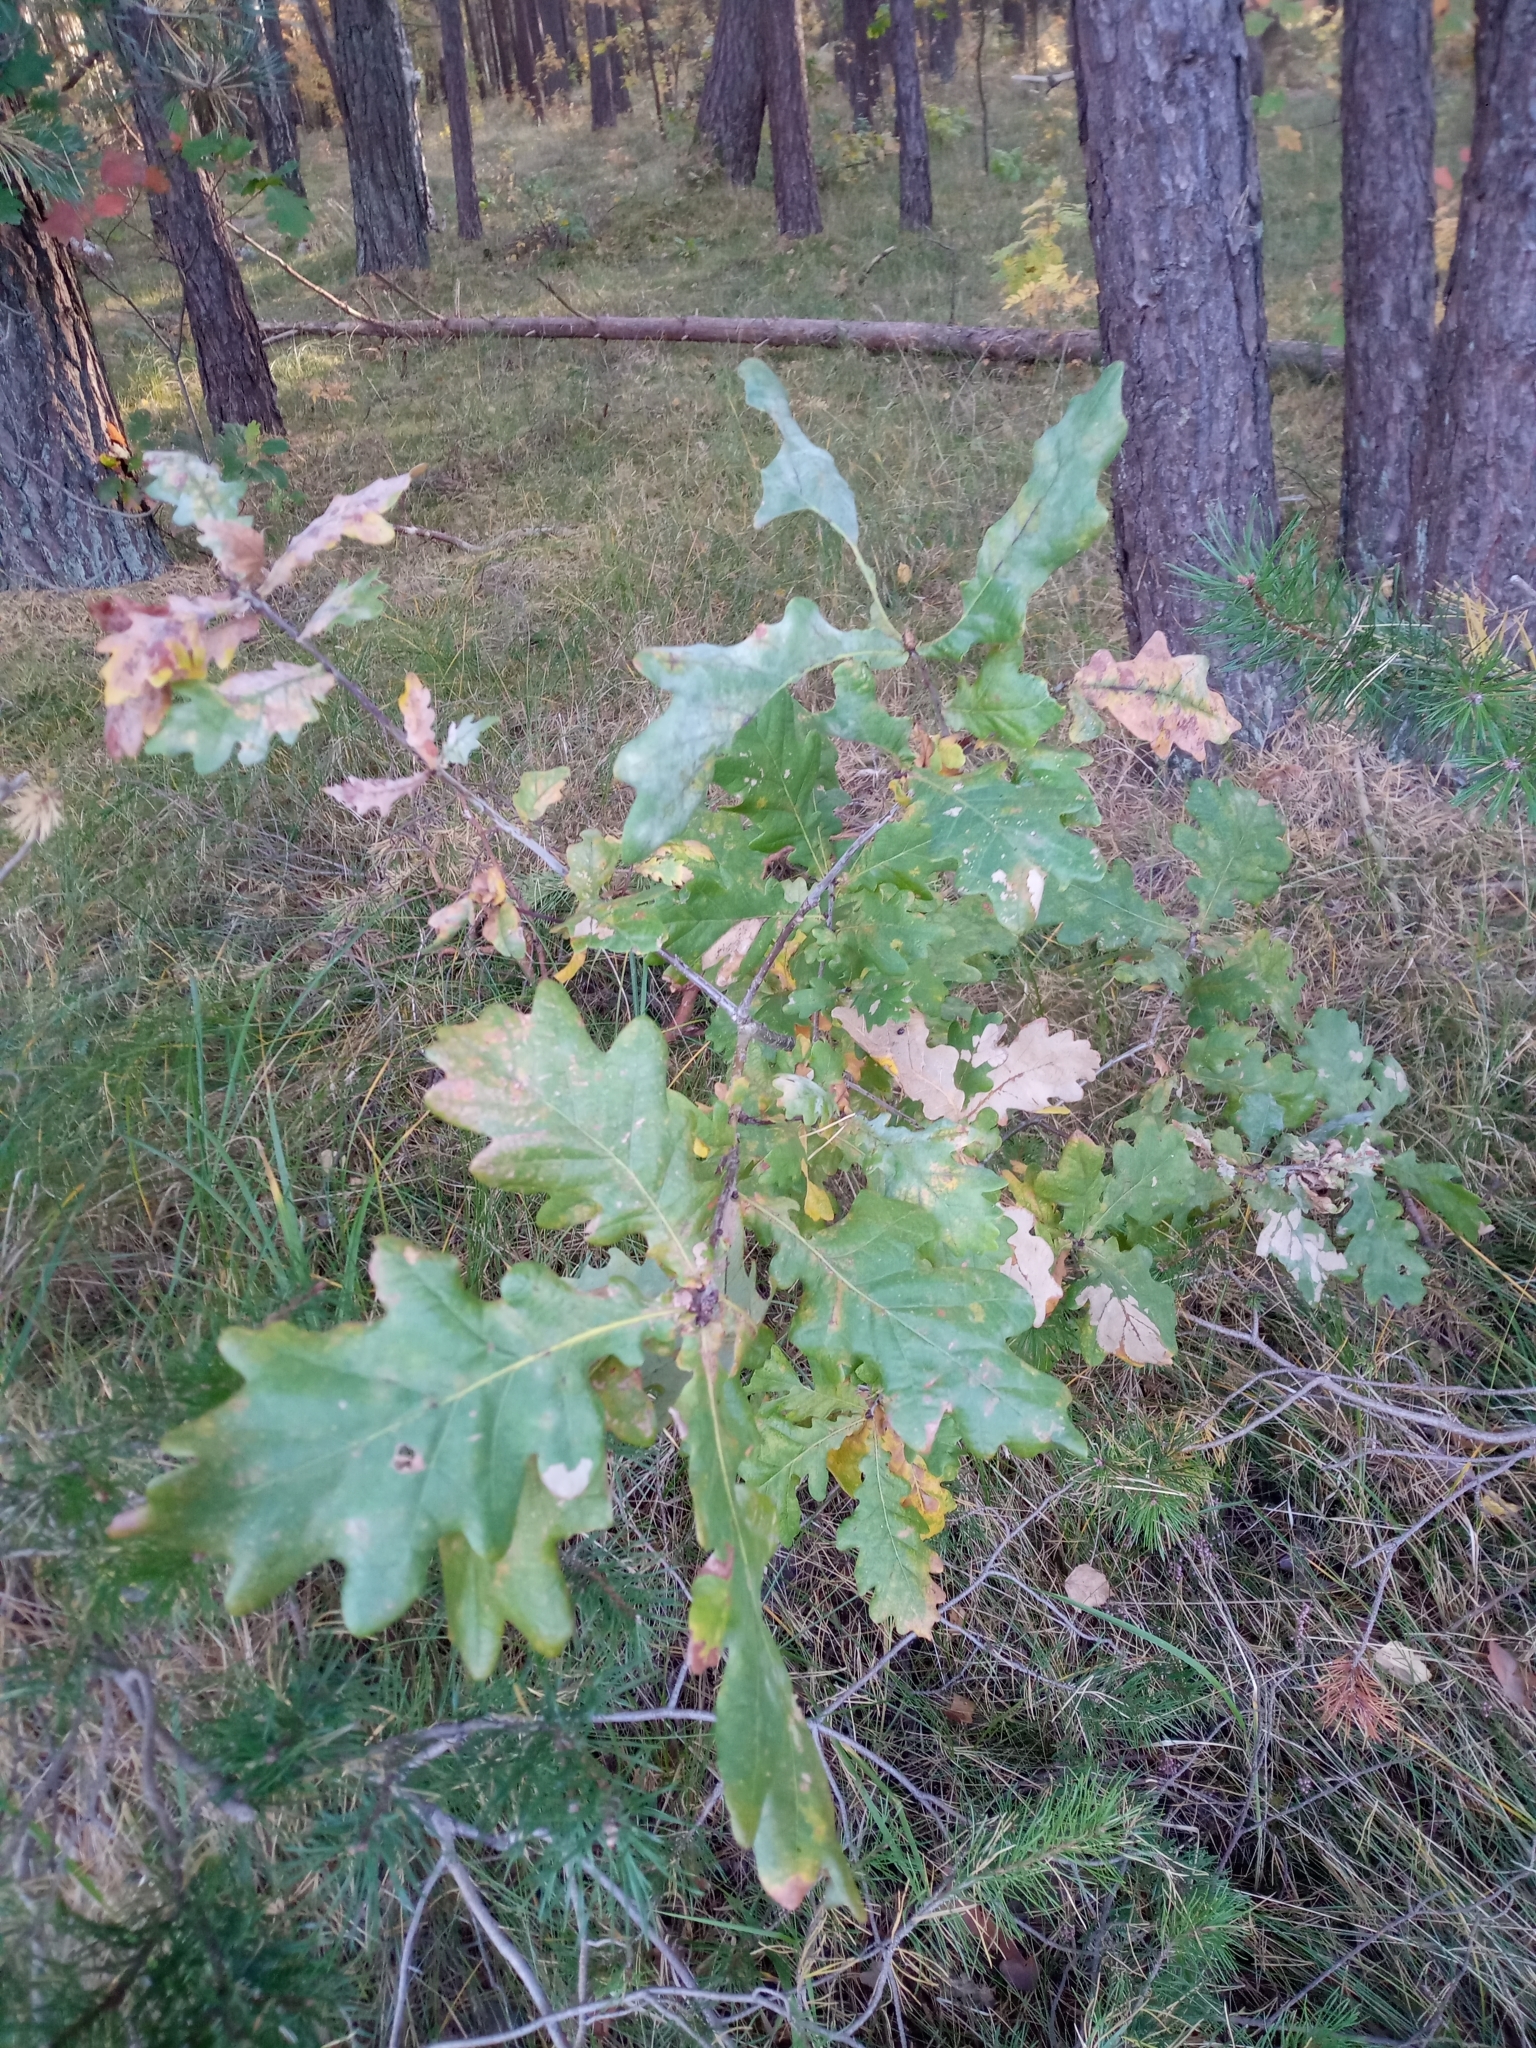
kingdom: Plantae
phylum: Tracheophyta
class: Magnoliopsida
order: Fagales
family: Fagaceae
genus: Quercus
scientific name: Quercus robur
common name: Pedunculate oak
